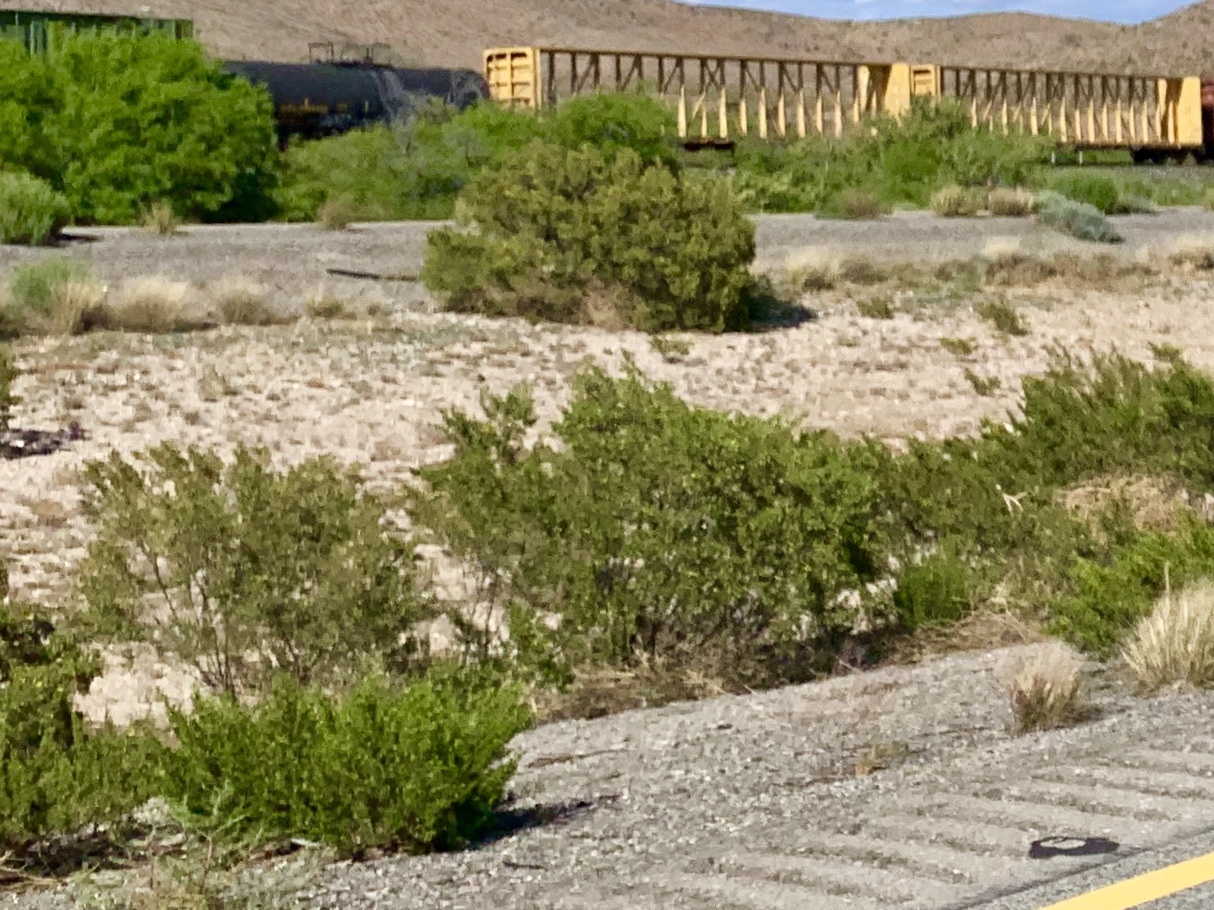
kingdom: Plantae
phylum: Tracheophyta
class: Magnoliopsida
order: Zygophyllales
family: Zygophyllaceae
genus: Larrea
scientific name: Larrea tridentata
